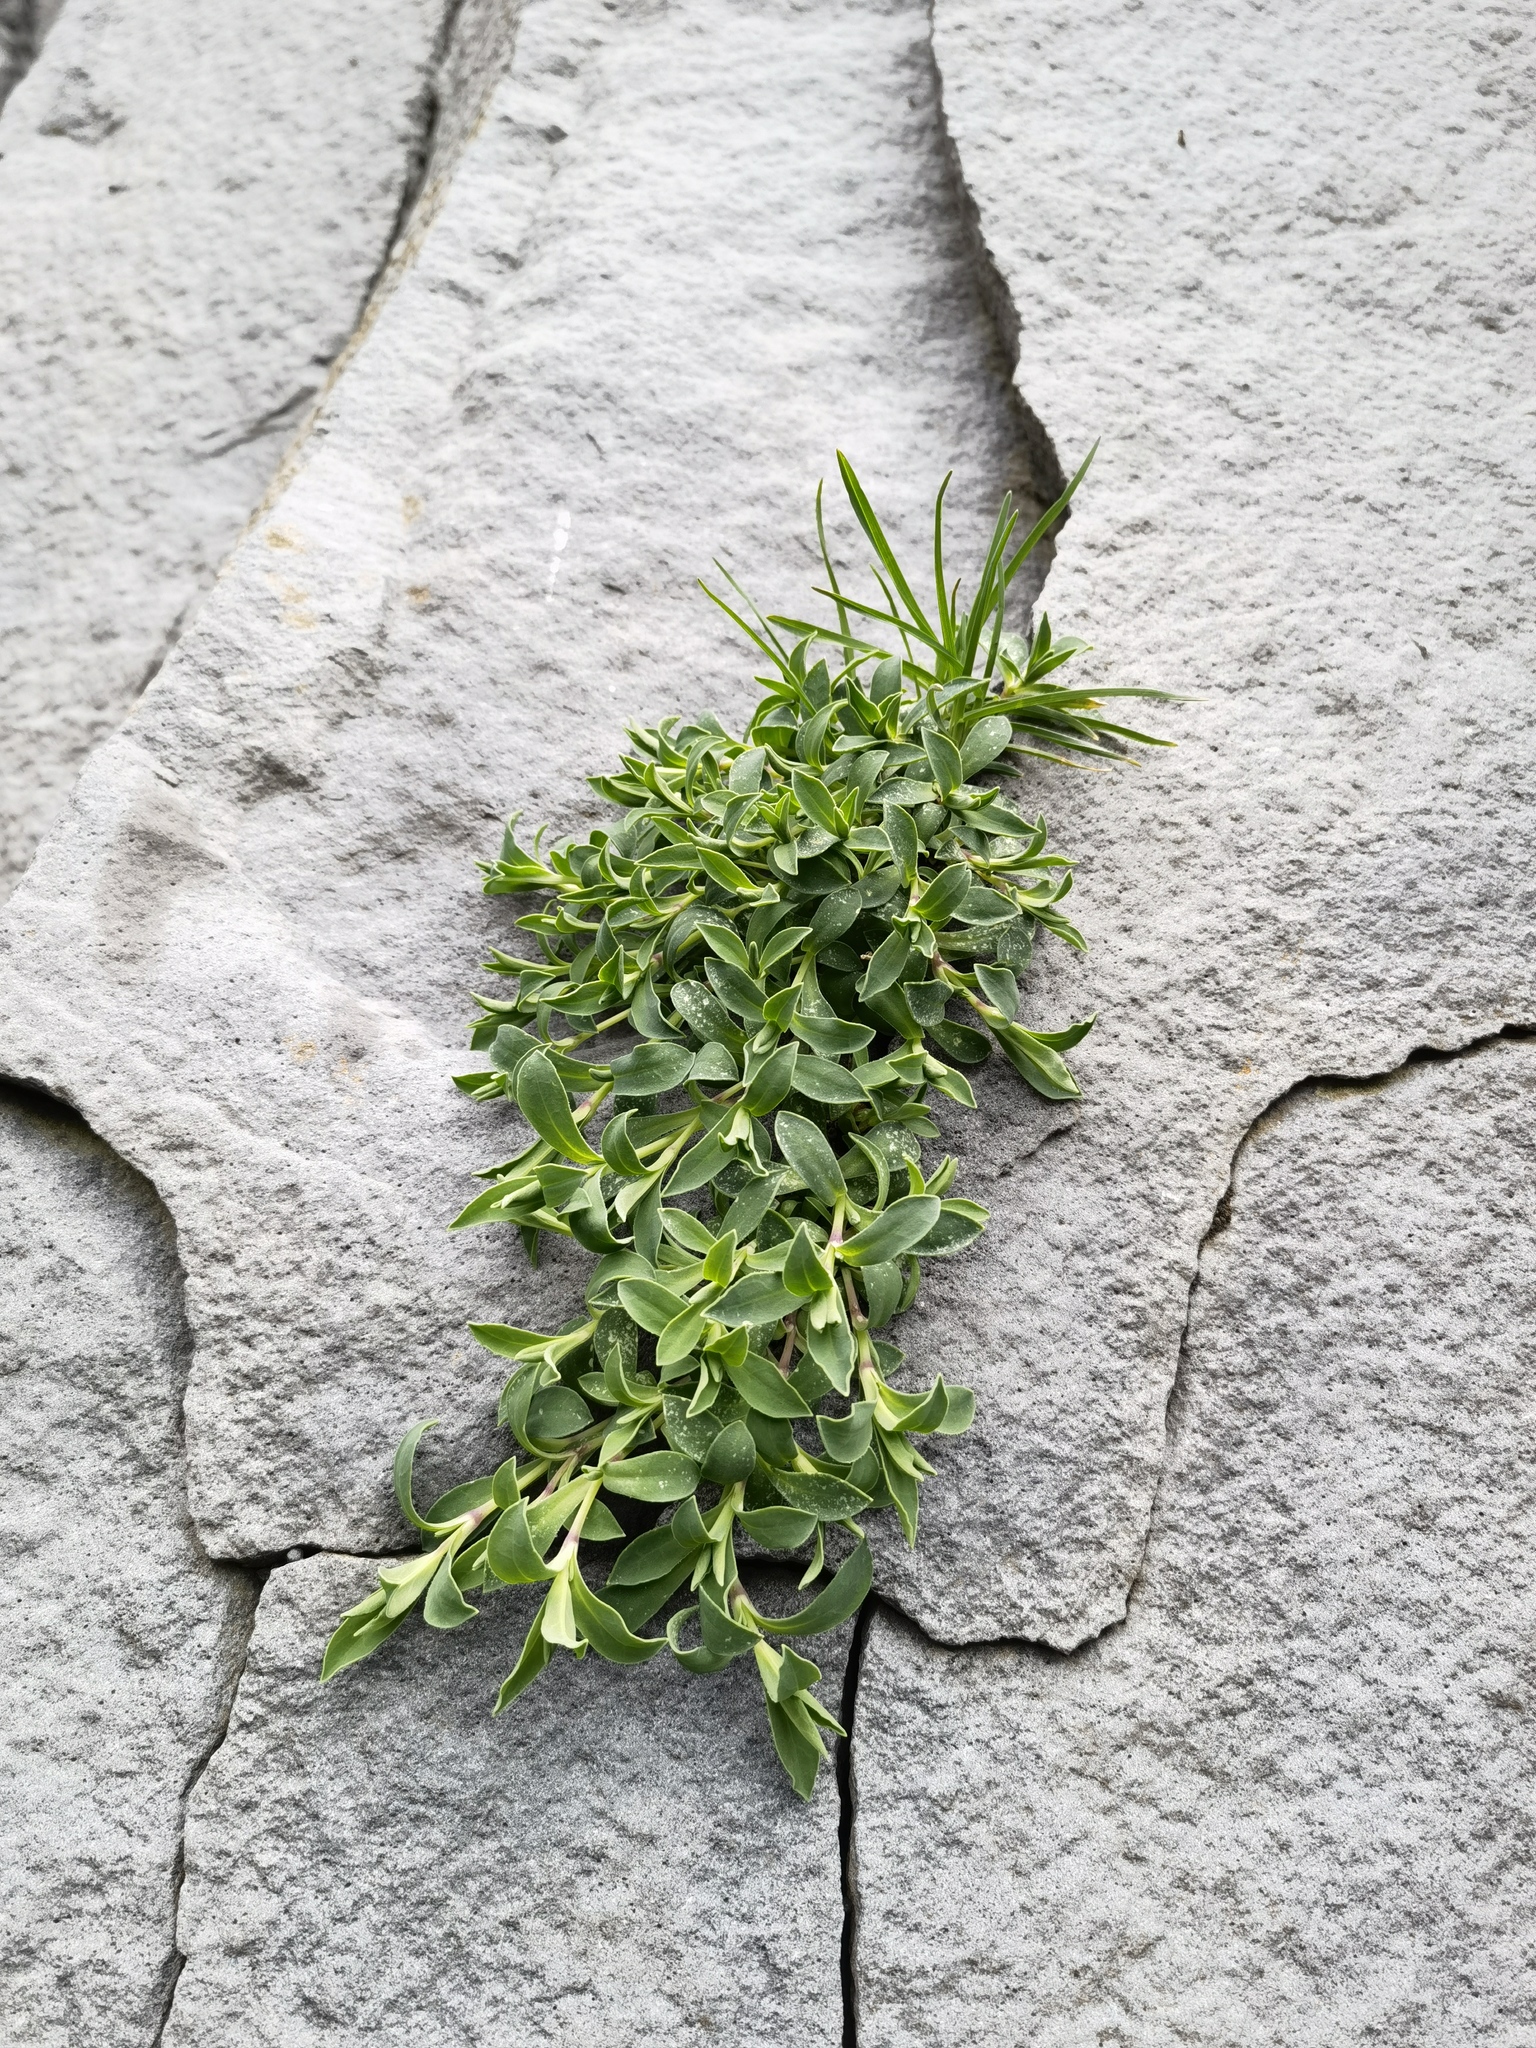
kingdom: Plantae
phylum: Tracheophyta
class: Magnoliopsida
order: Caryophyllales
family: Caryophyllaceae
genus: Silene
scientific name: Silene uniflora
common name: Sea campion
